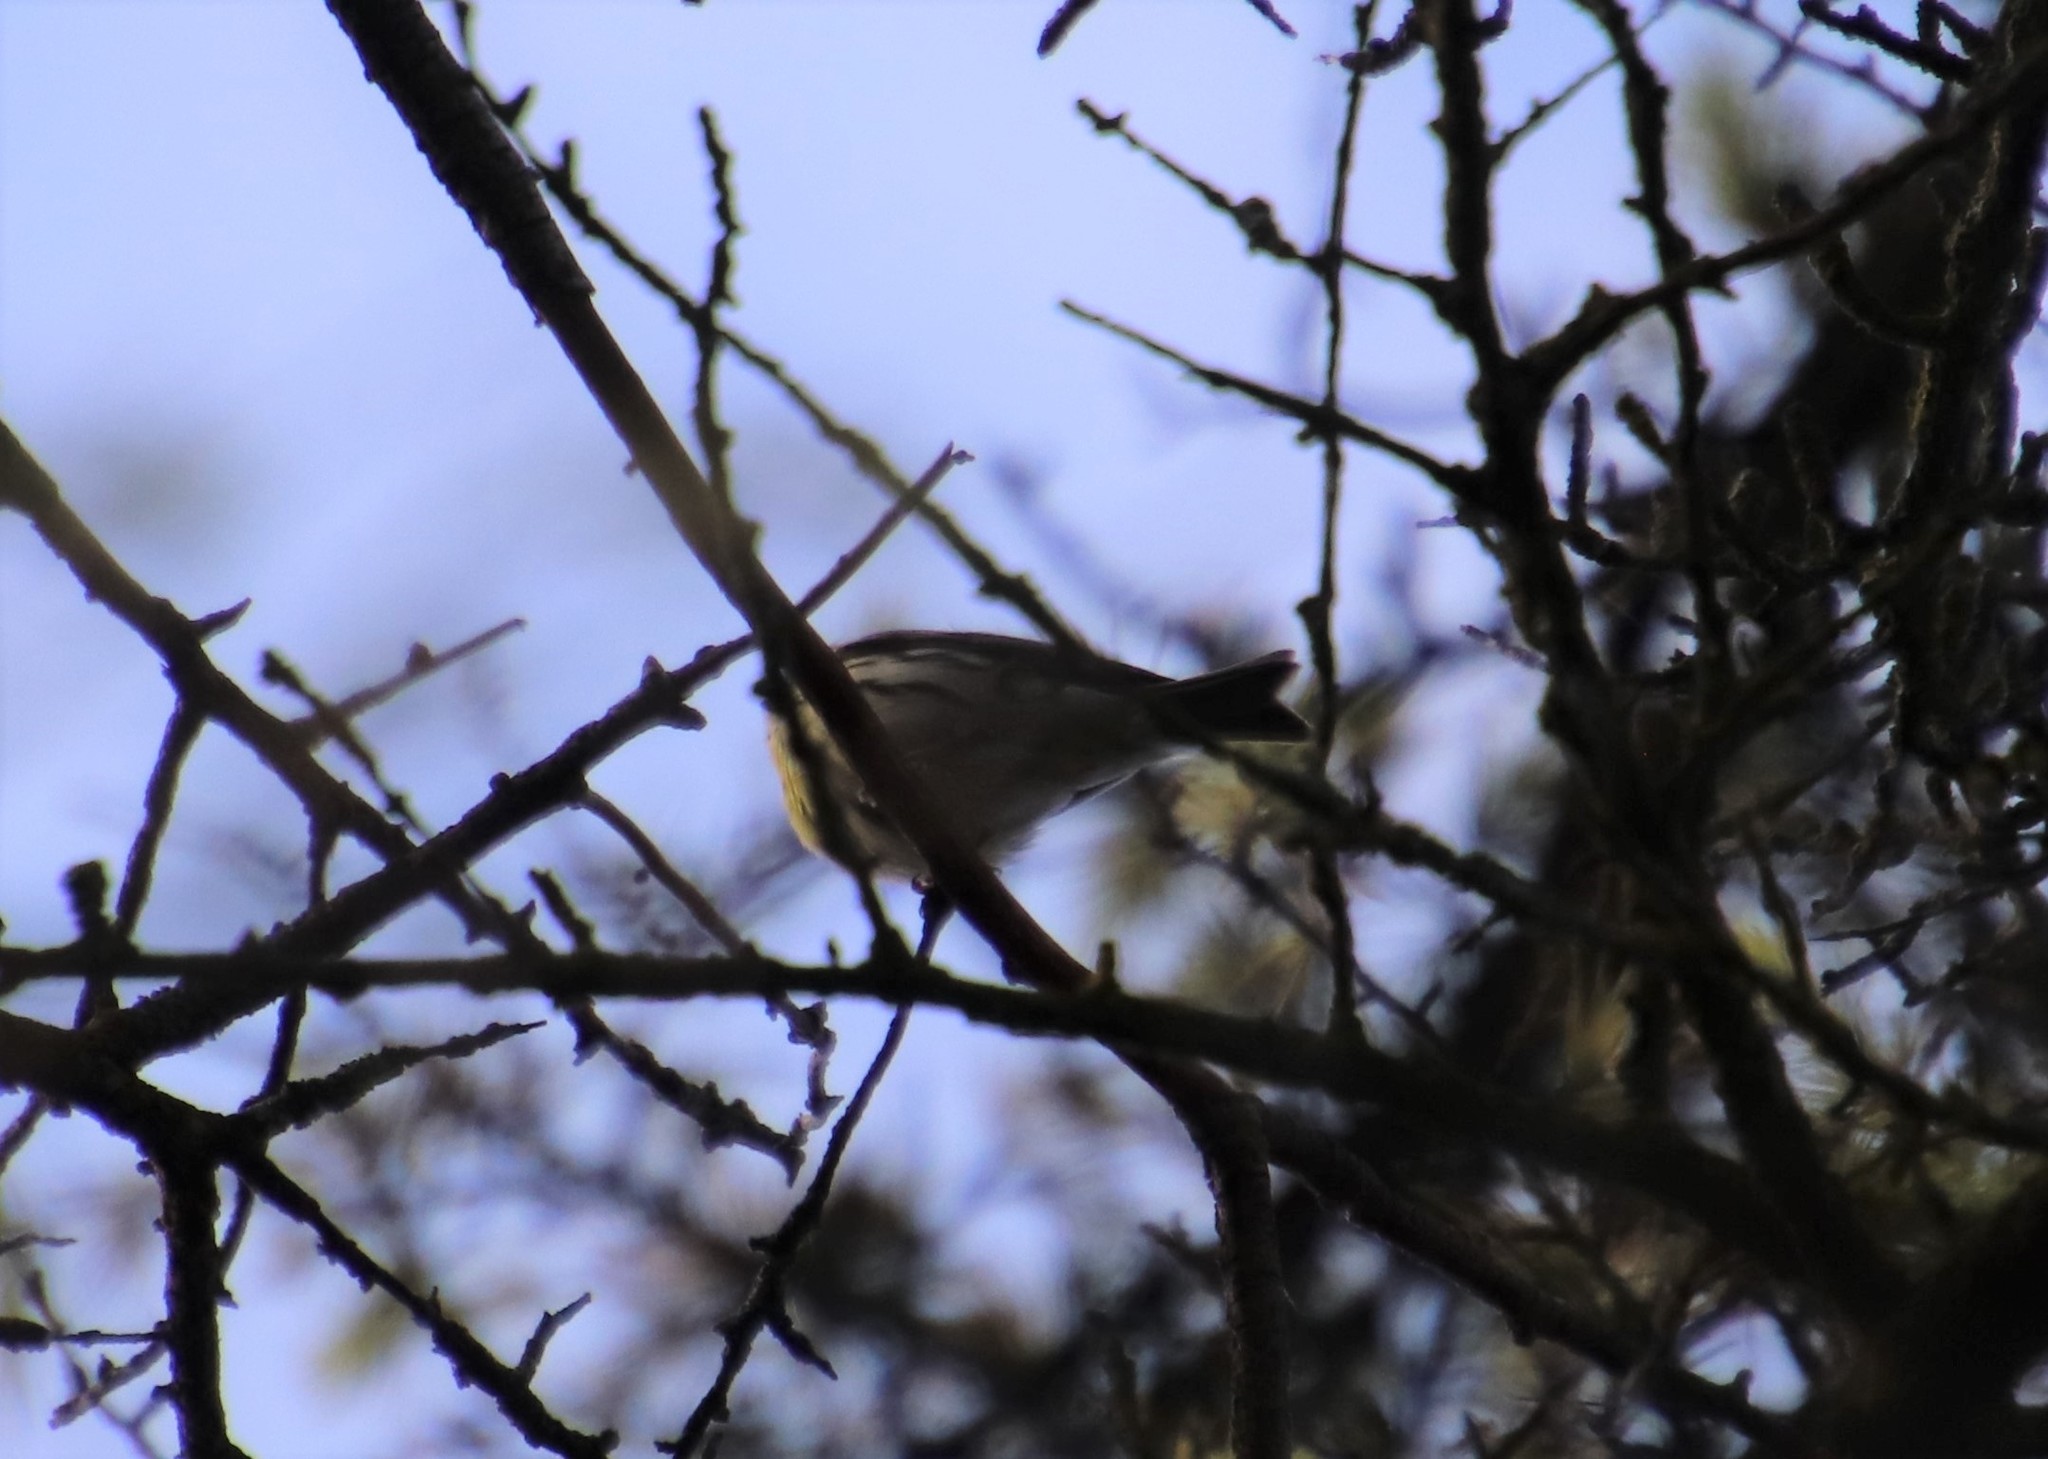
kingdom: Animalia
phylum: Chordata
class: Aves
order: Passeriformes
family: Fringillidae
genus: Serinus
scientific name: Serinus serinus
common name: European serin
